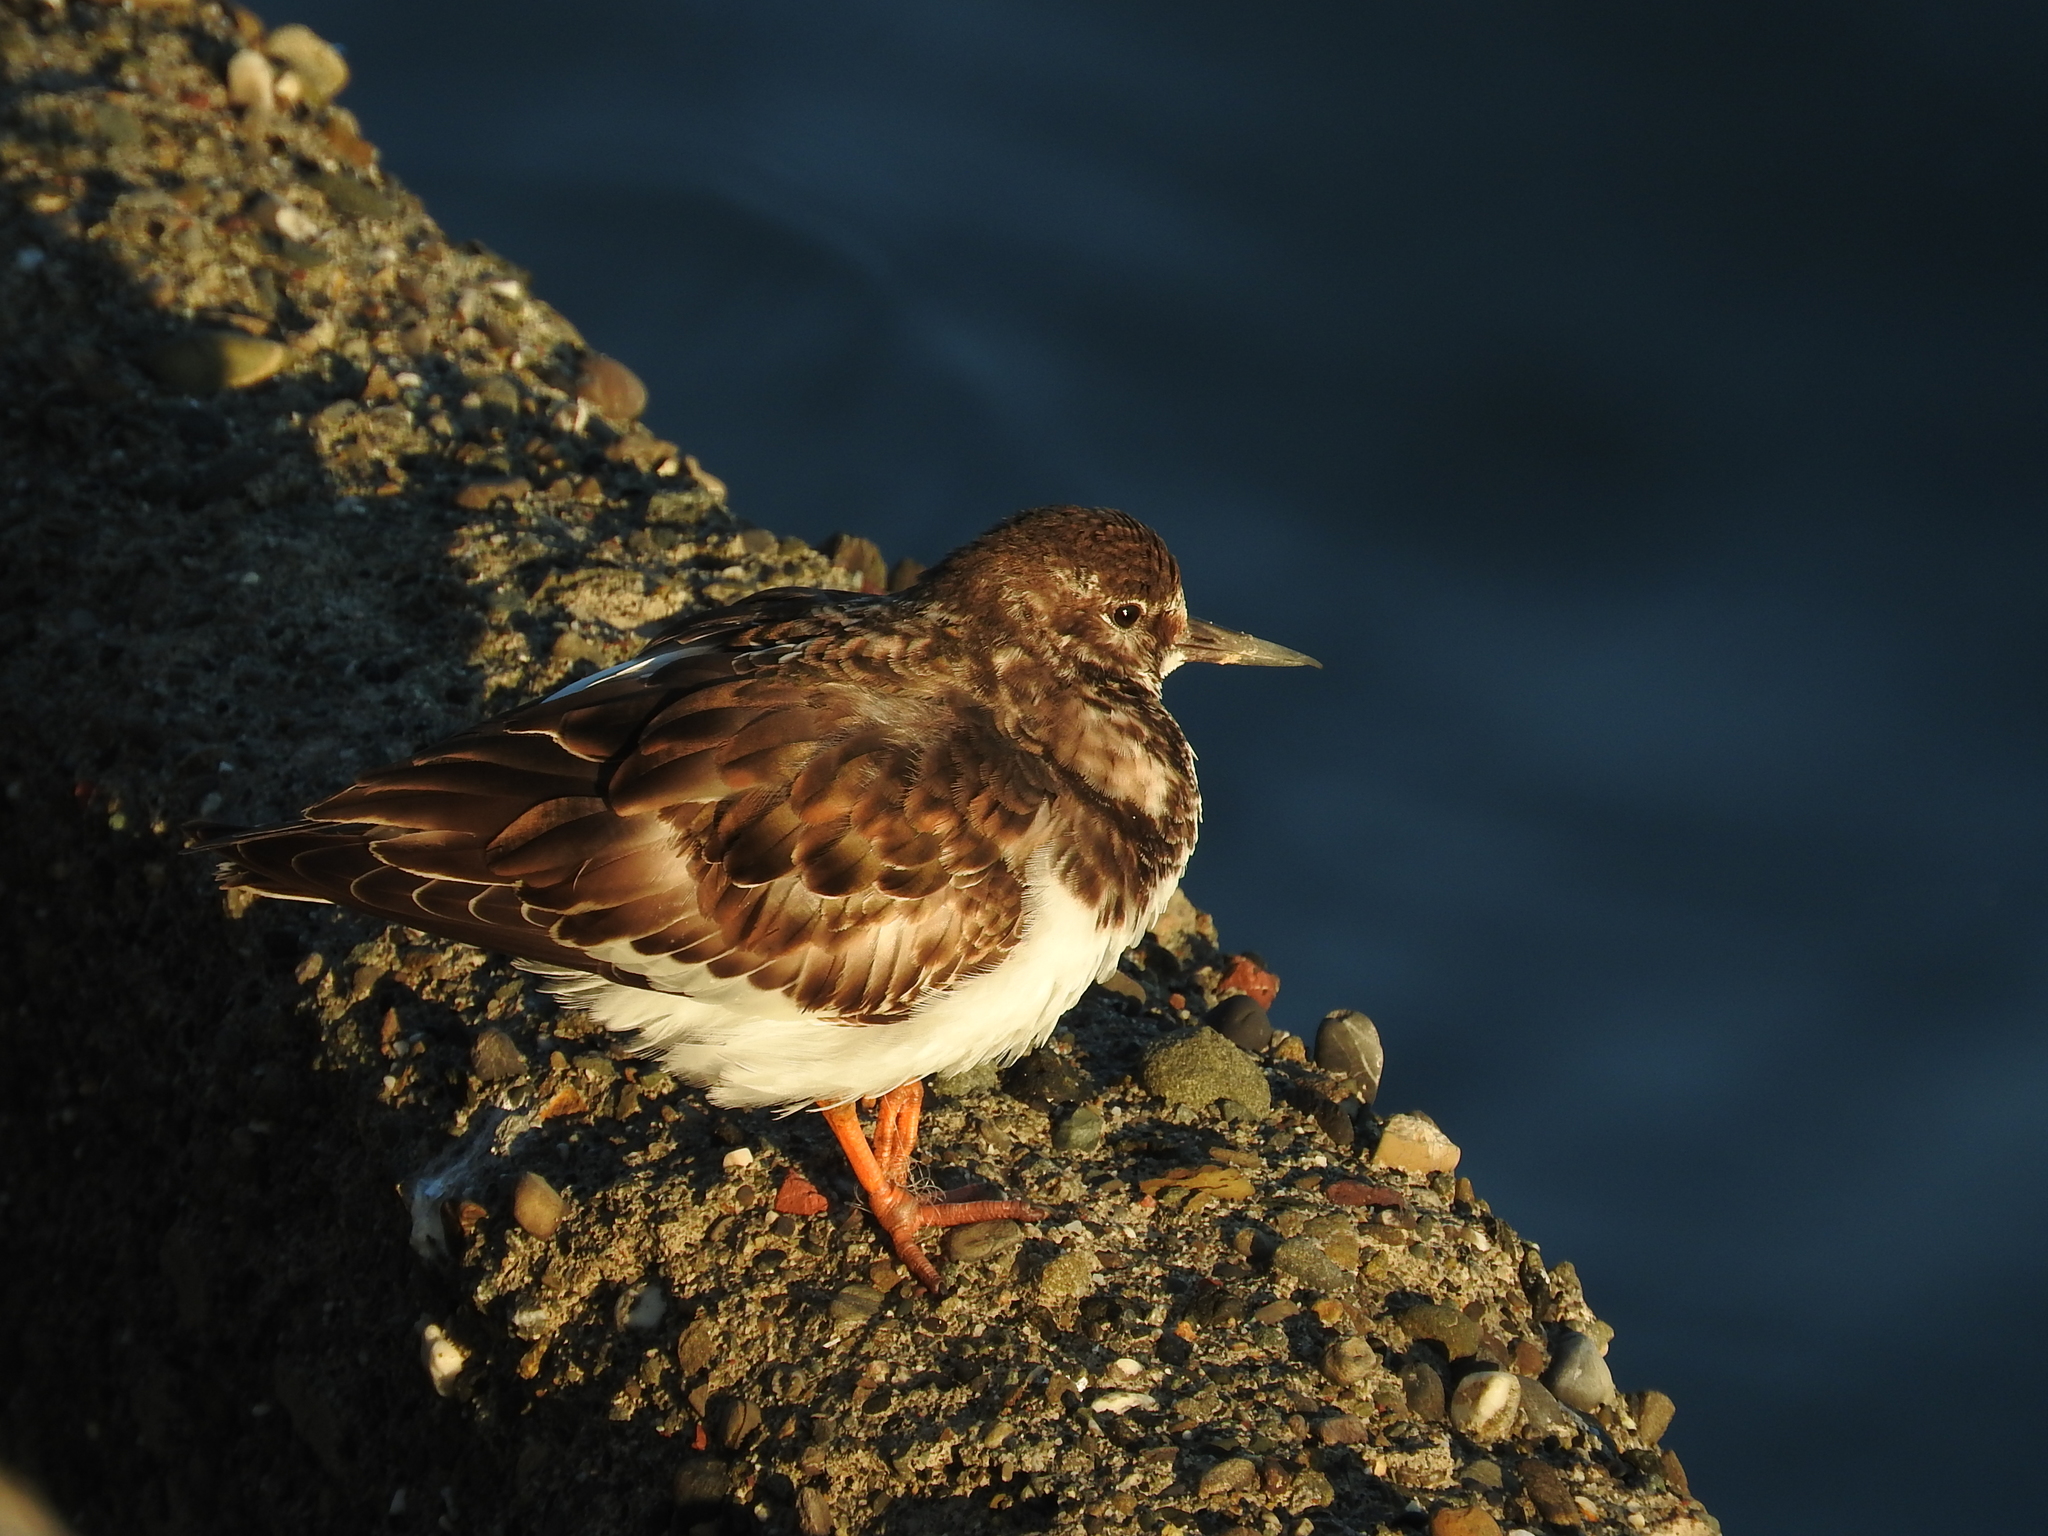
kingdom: Animalia
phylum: Chordata
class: Aves
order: Charadriiformes
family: Scolopacidae
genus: Arenaria
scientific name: Arenaria interpres
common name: Ruddy turnstone
